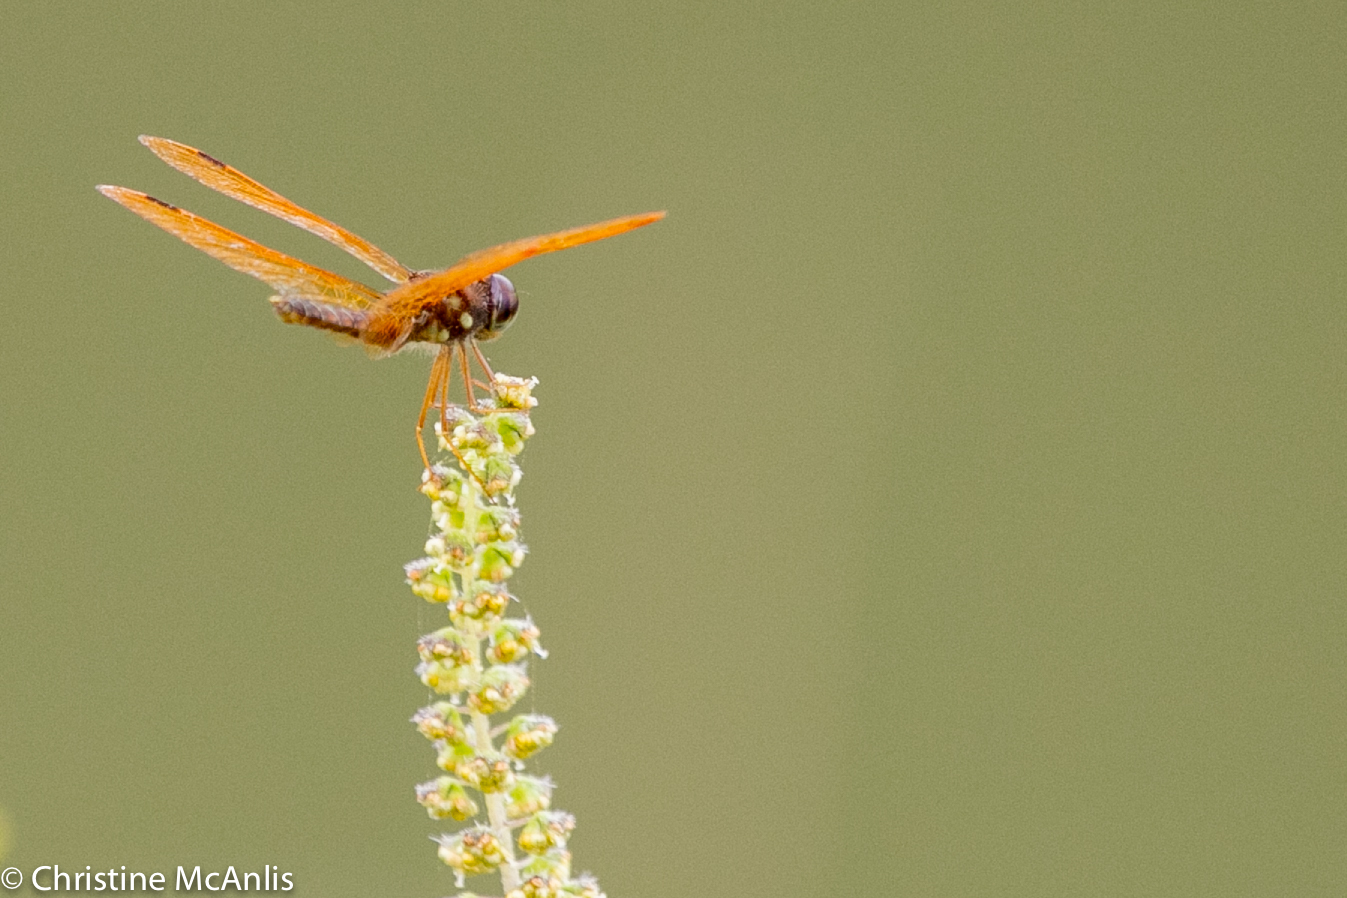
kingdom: Animalia
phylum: Arthropoda
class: Insecta
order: Odonata
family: Libellulidae
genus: Perithemis
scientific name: Perithemis tenera
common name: Eastern amberwing
